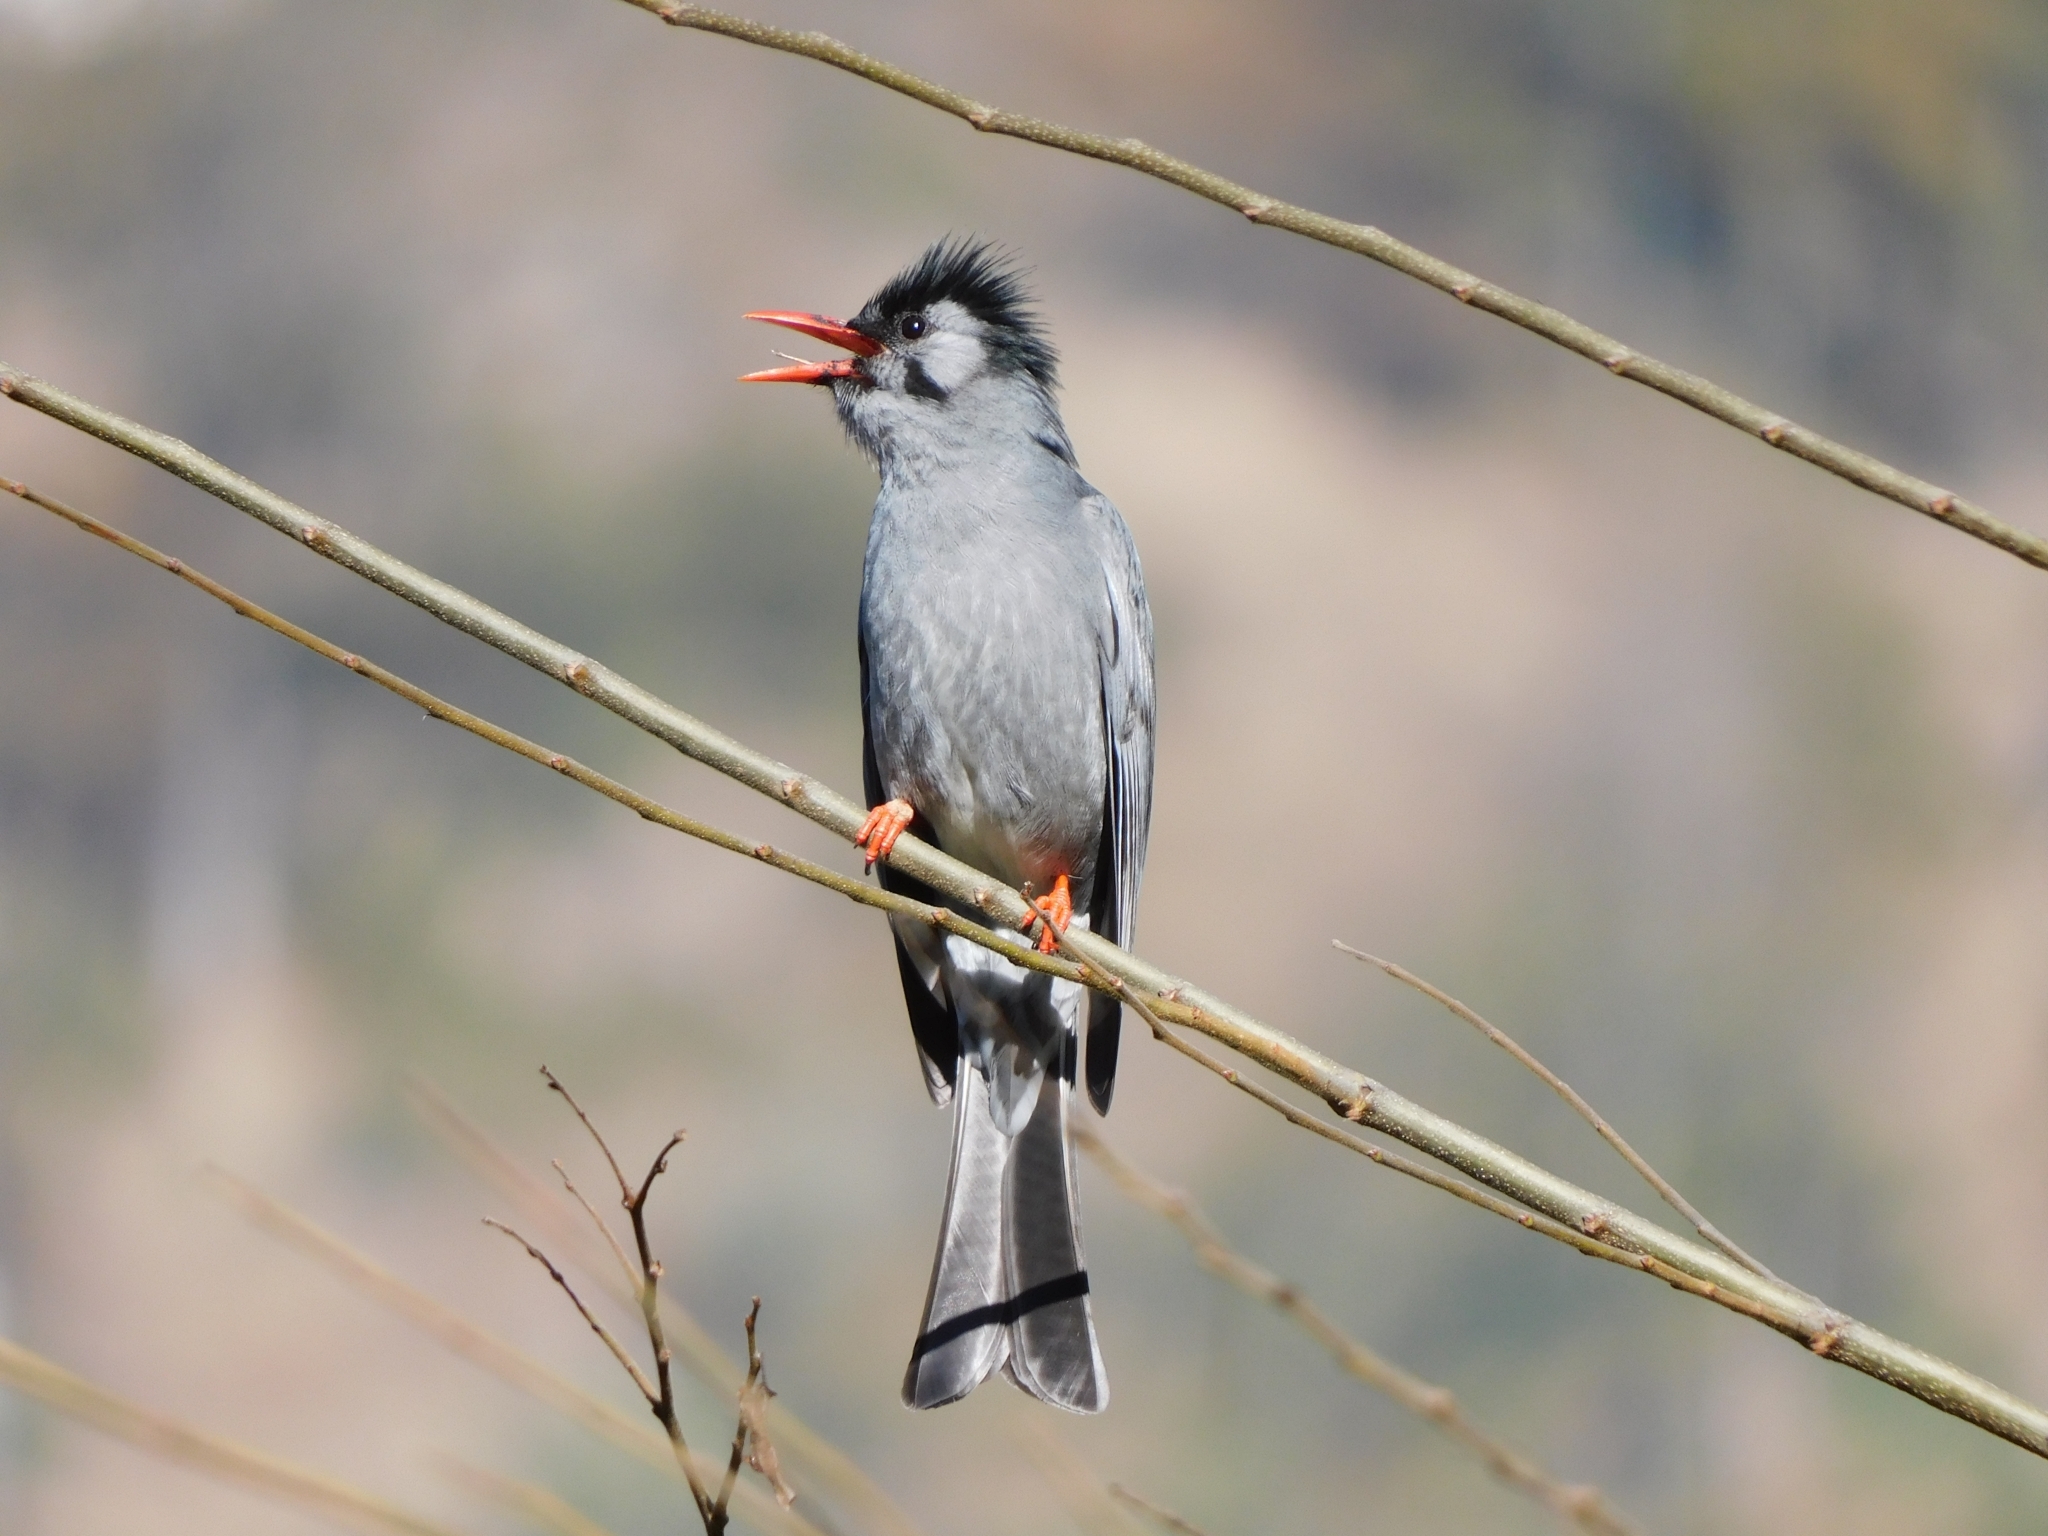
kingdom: Animalia
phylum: Chordata
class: Aves
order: Passeriformes
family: Pycnonotidae
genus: Hypsipetes
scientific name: Hypsipetes leucocephalus
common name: Black bulbul
